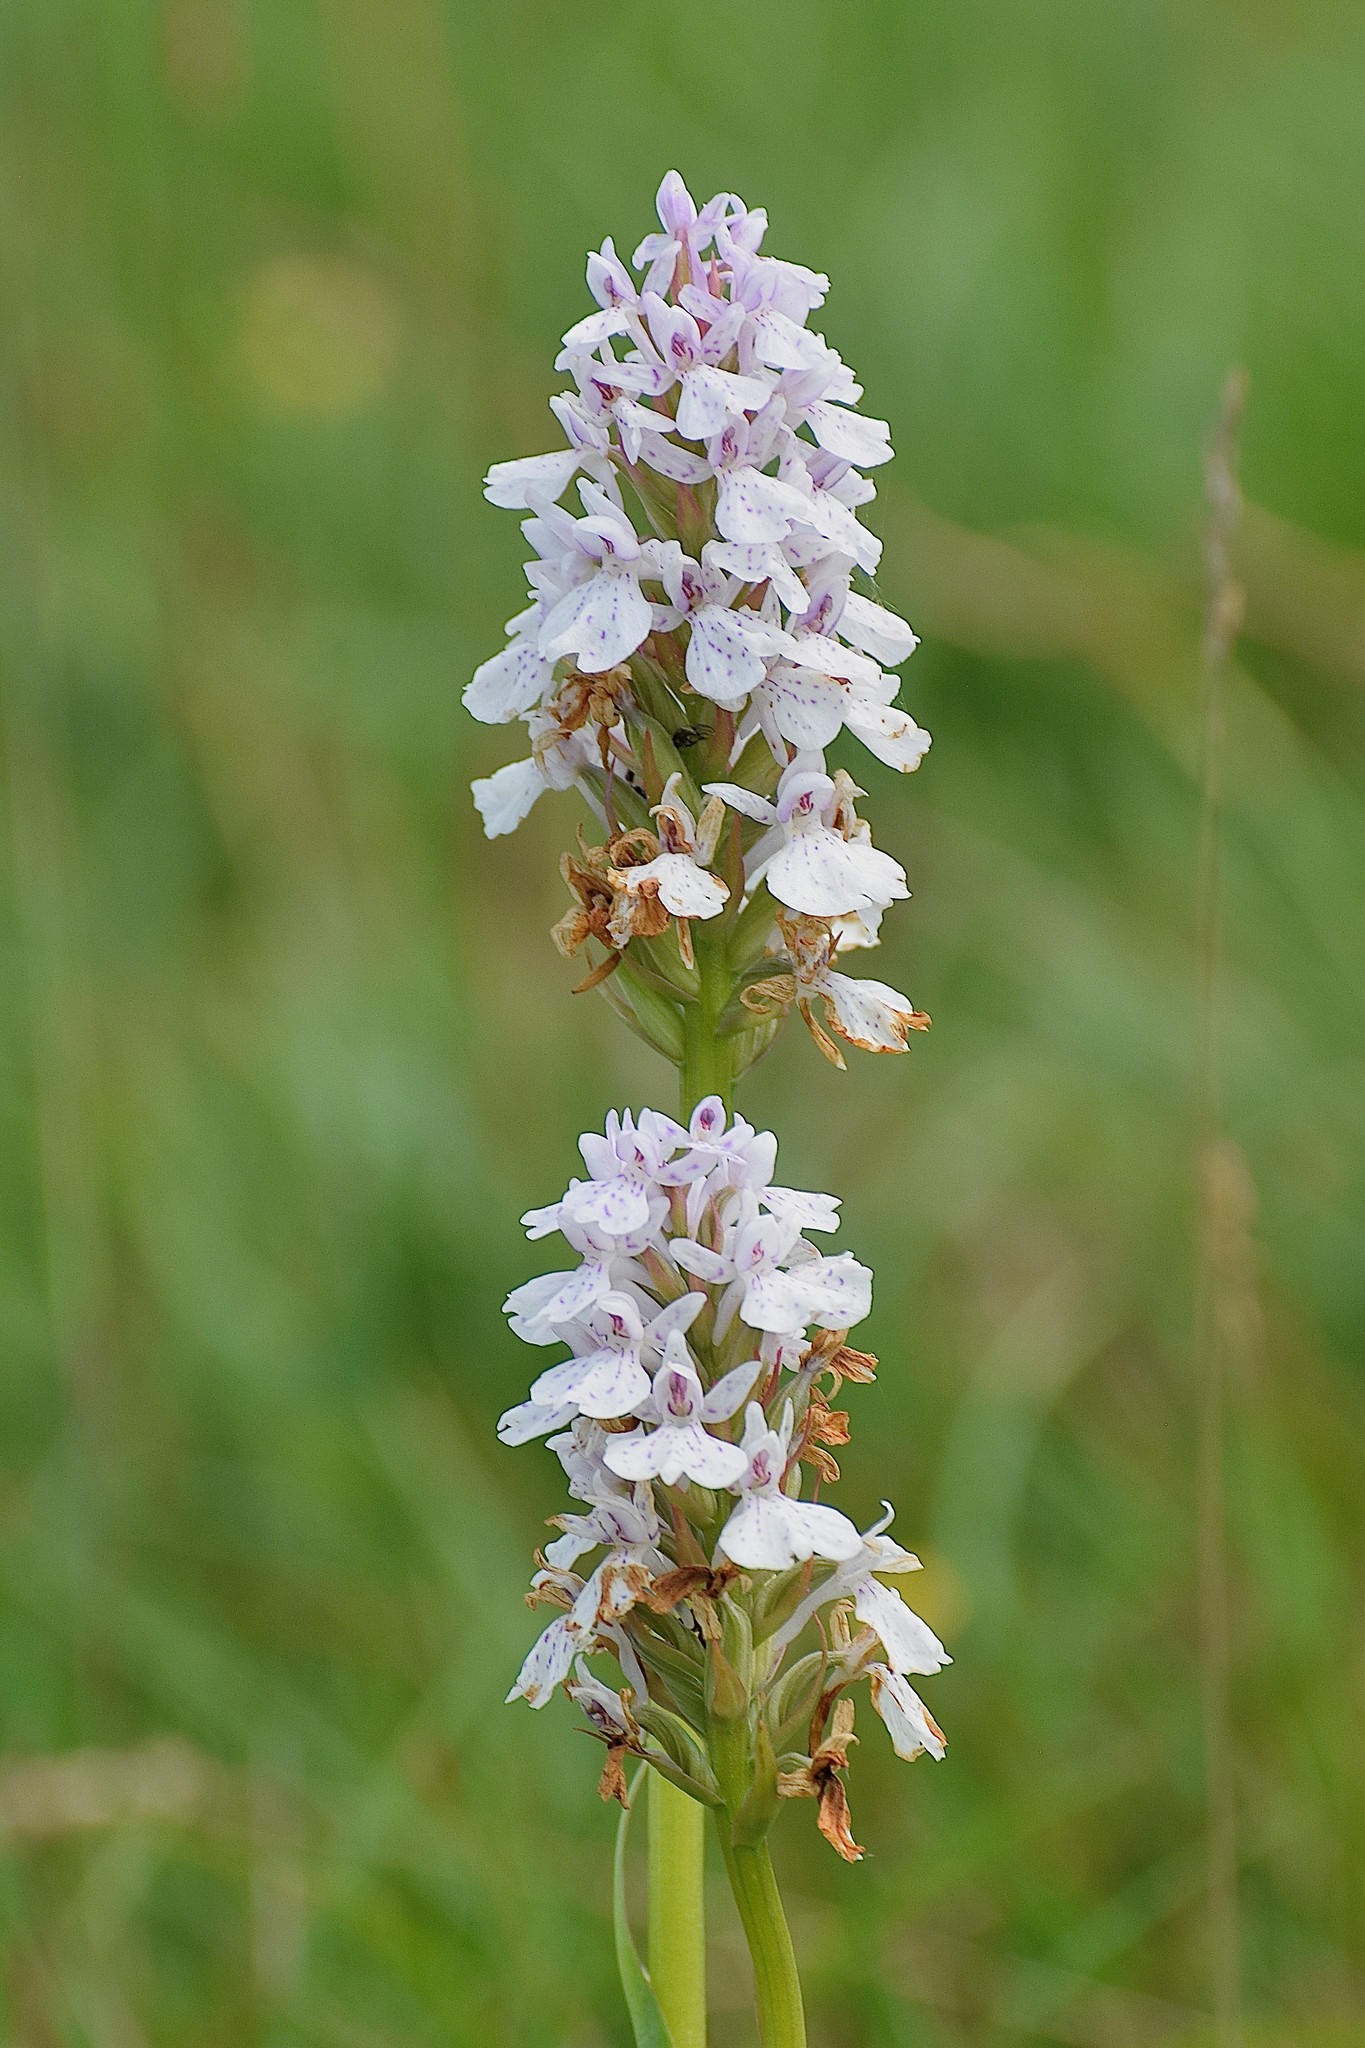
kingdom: Plantae
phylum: Tracheophyta
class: Liliopsida
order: Asparagales
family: Orchidaceae
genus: Dactylorhiza
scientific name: Dactylorhiza maculata
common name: Heath spotted-orchid
